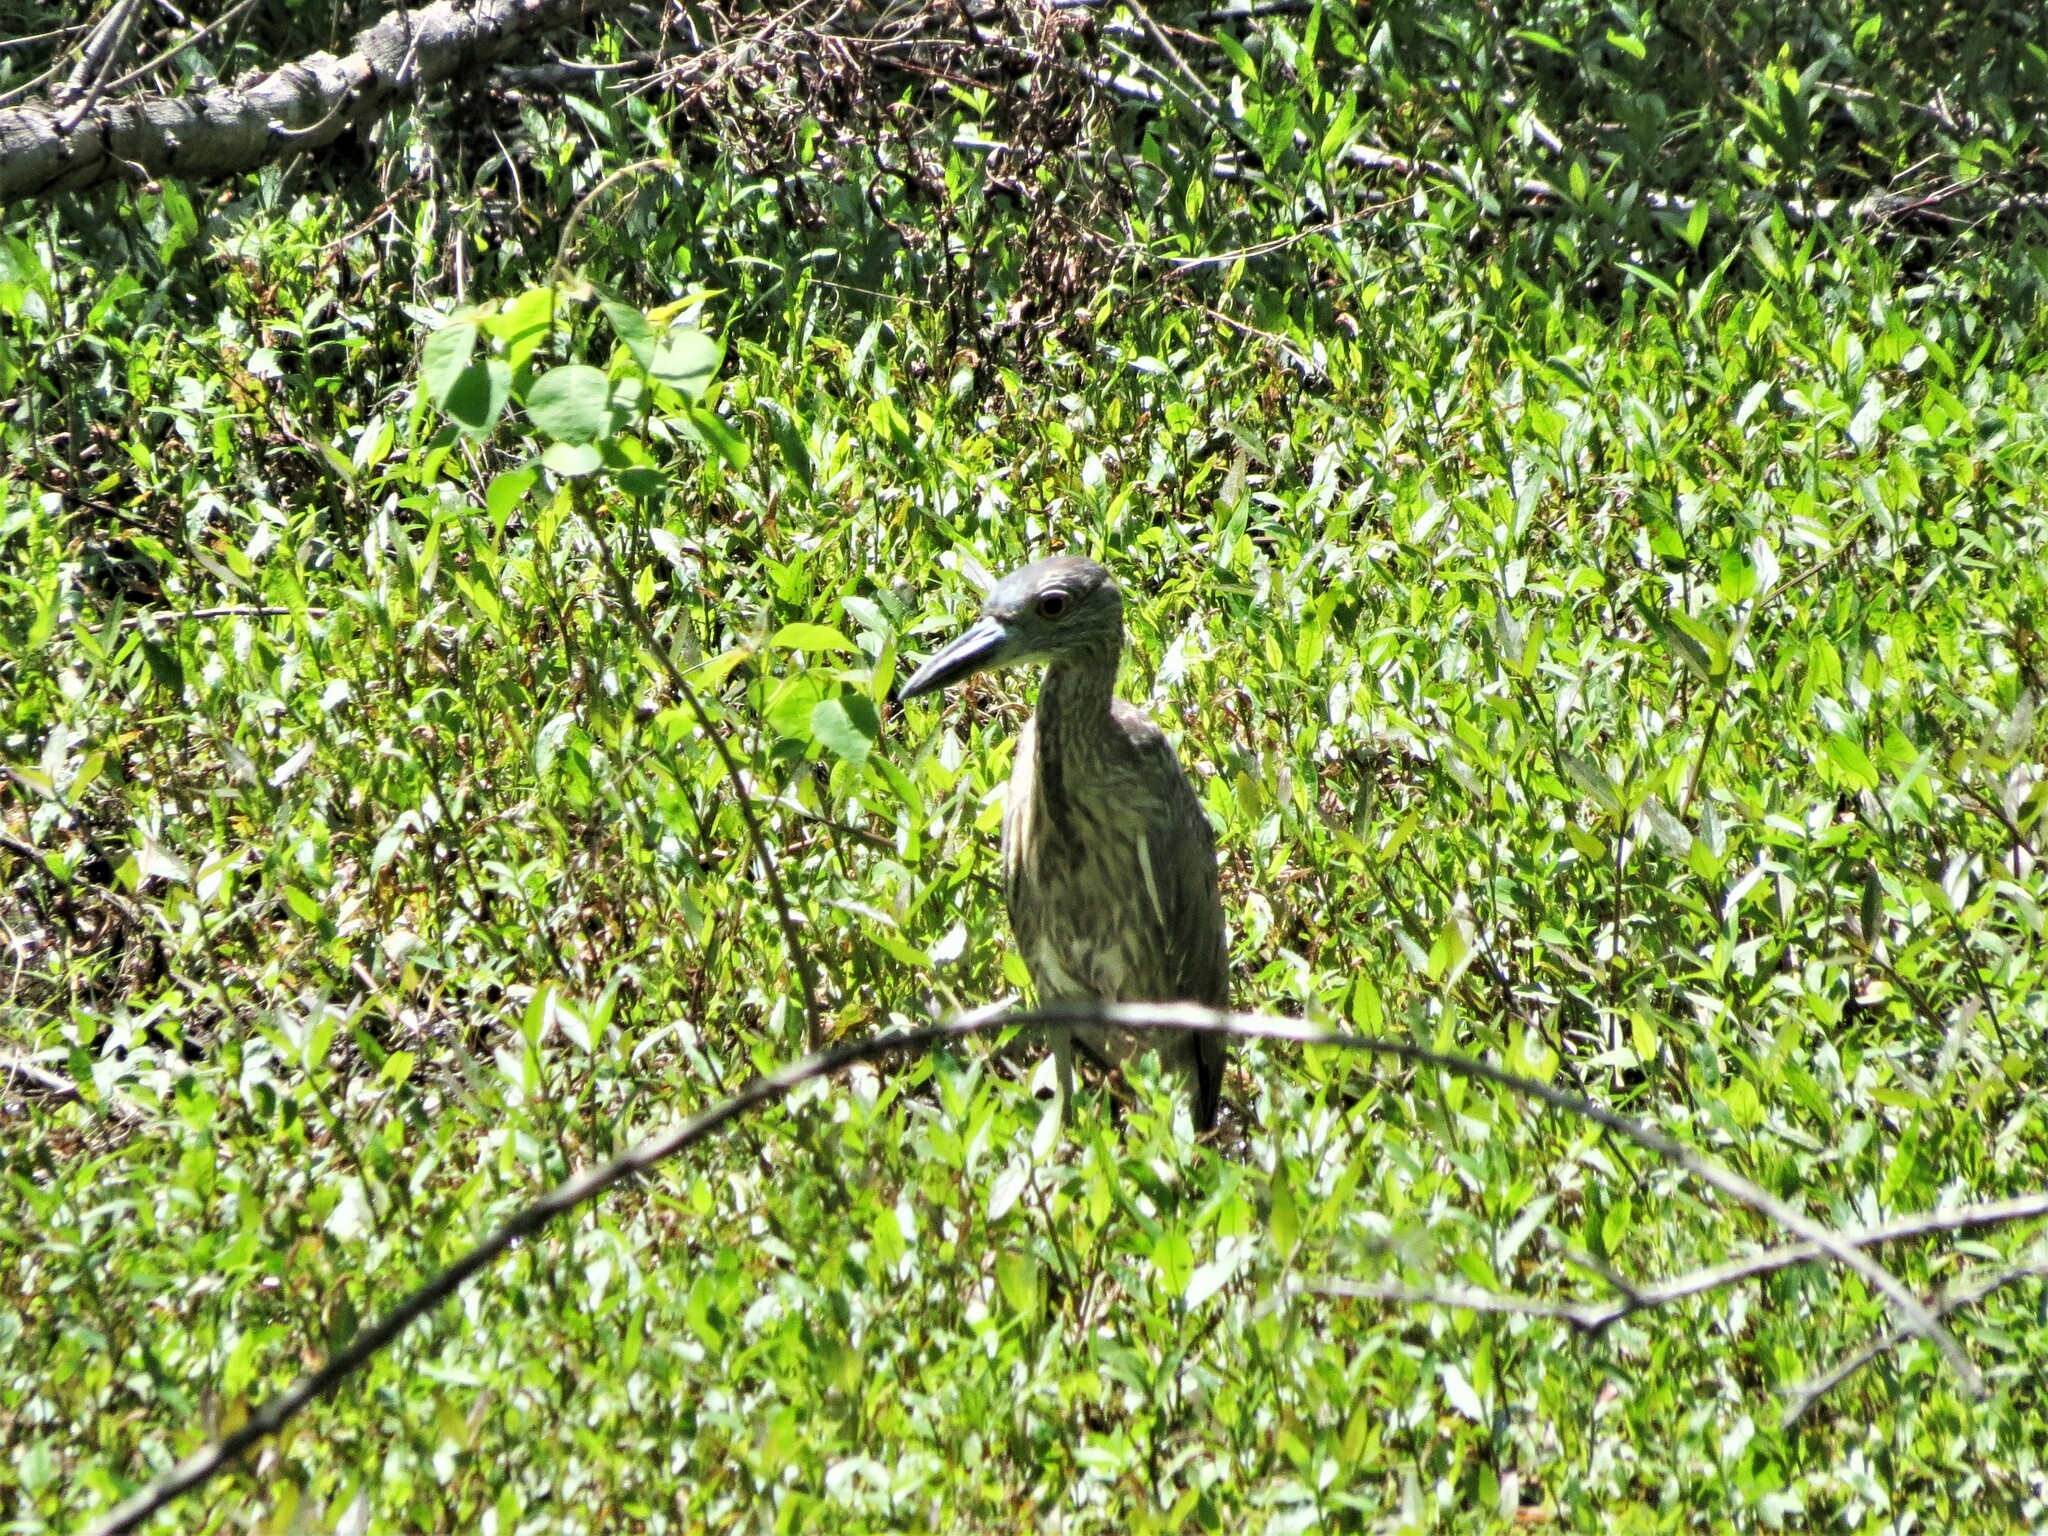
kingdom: Animalia
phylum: Chordata
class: Aves
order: Pelecaniformes
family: Ardeidae
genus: Nyctanassa
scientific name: Nyctanassa violacea
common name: Yellow-crowned night heron
